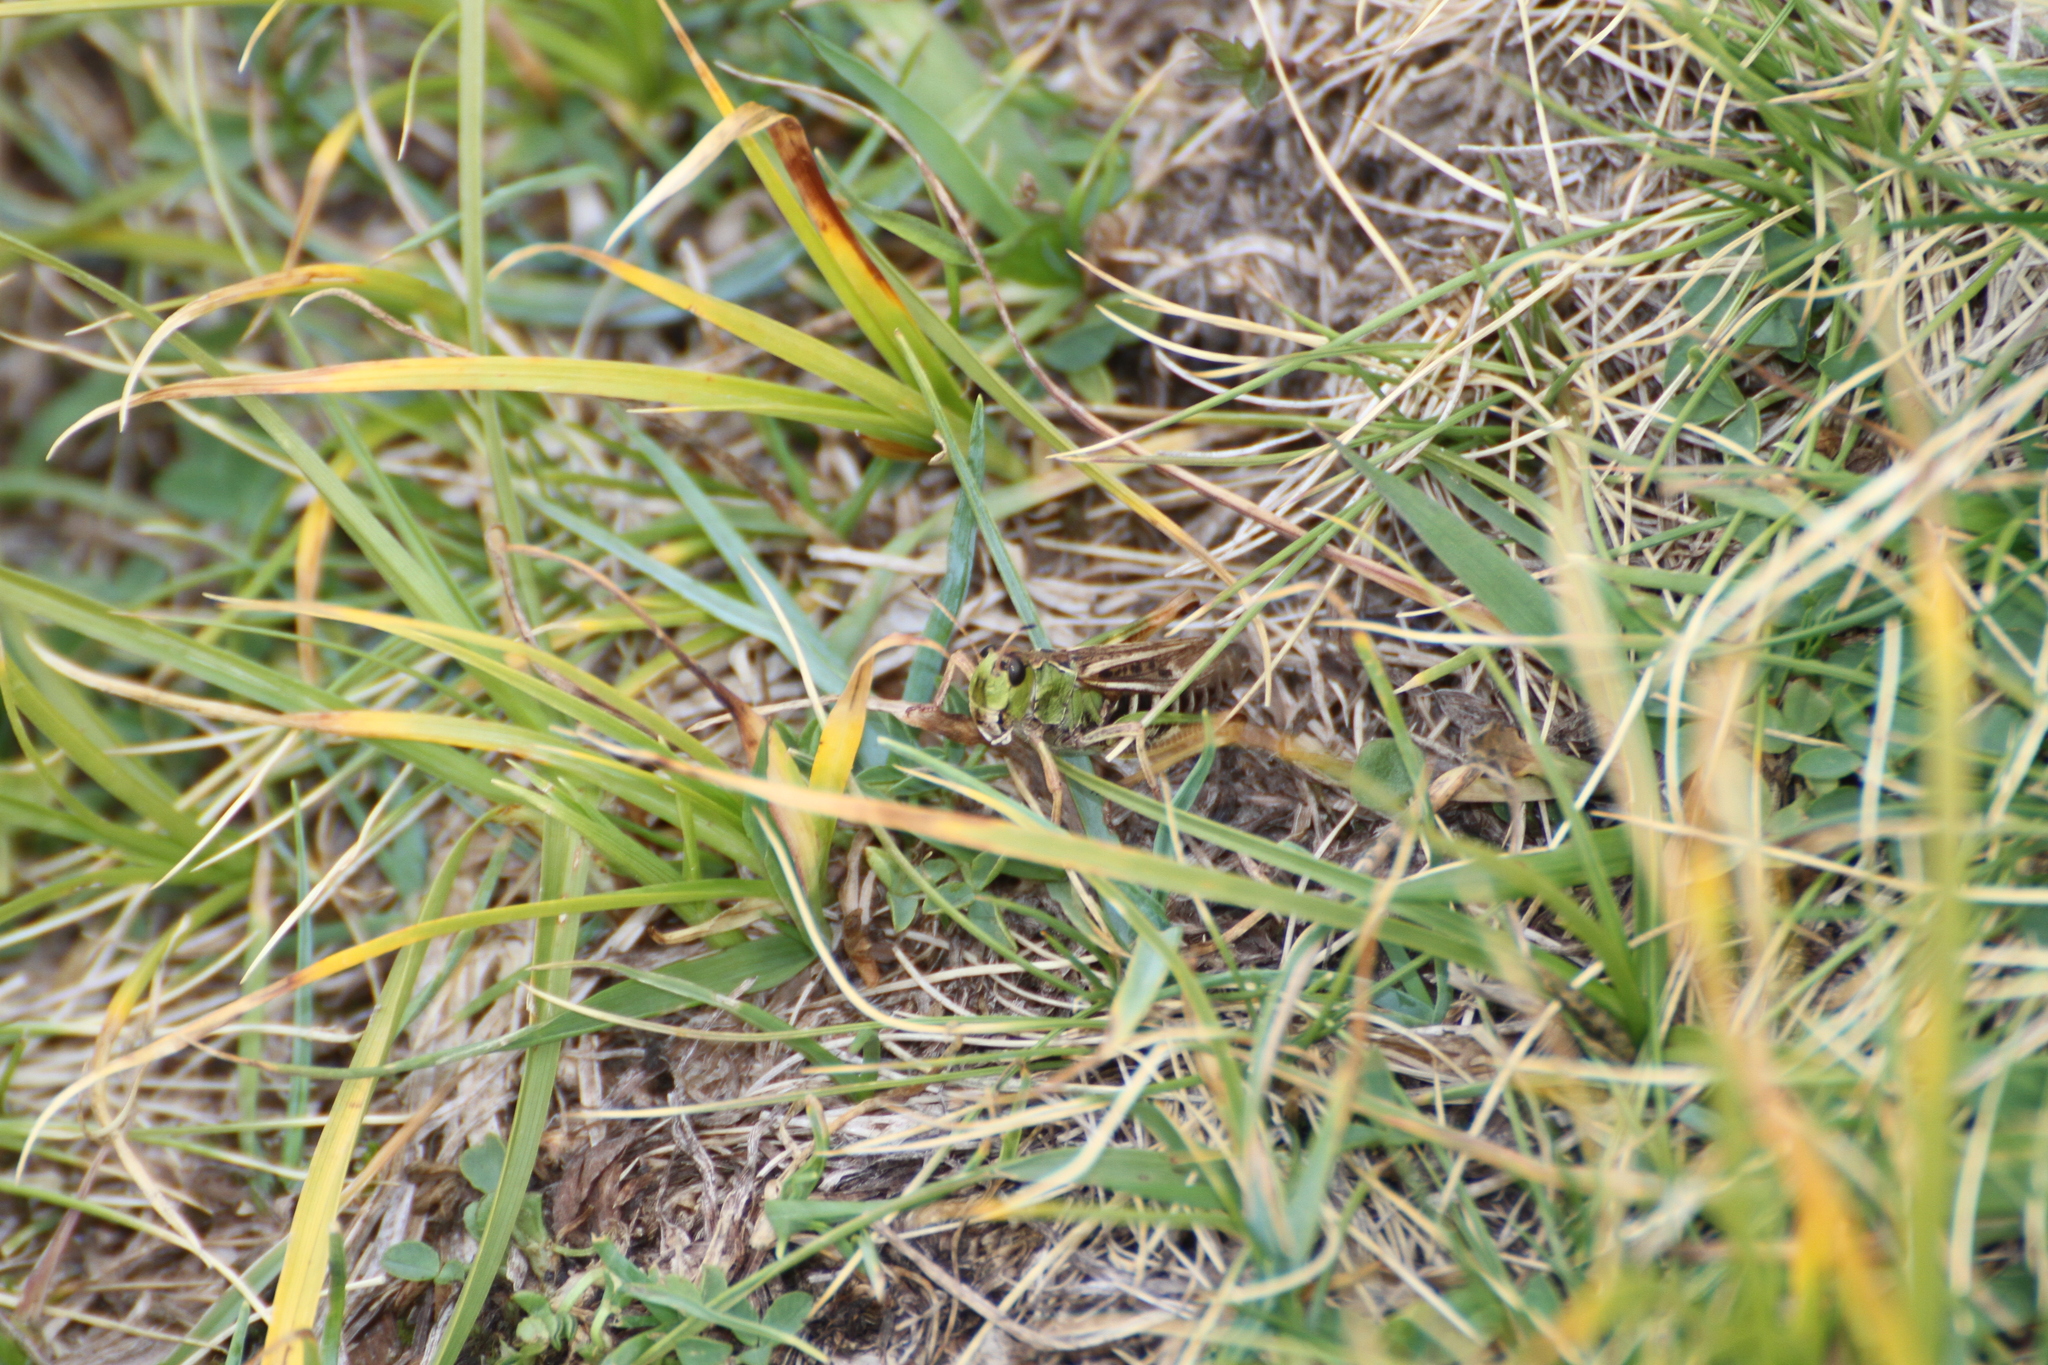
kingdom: Animalia
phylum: Arthropoda
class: Insecta
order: Orthoptera
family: Acrididae
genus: Gomphocerus
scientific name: Gomphocerus sibiricus
